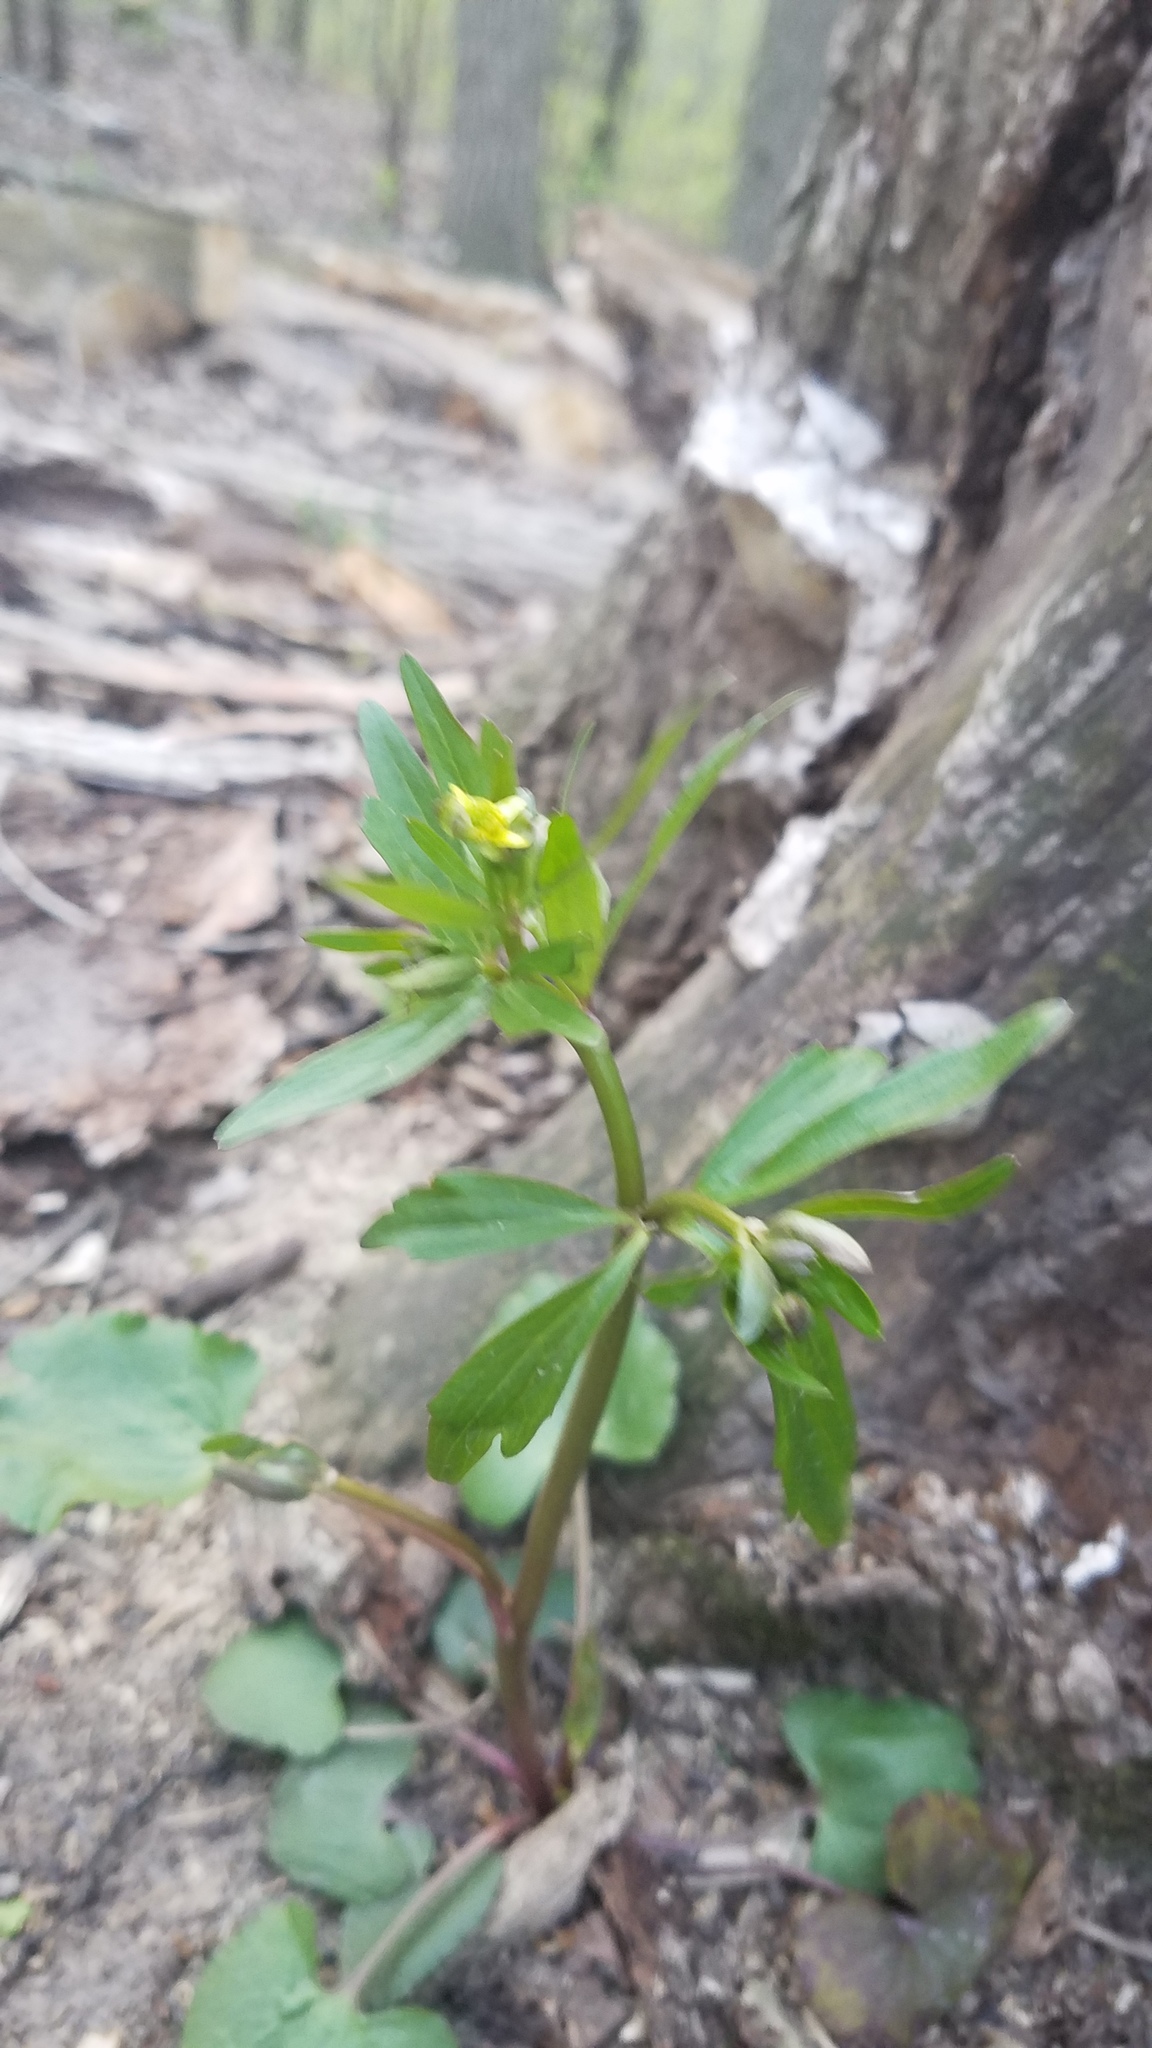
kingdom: Plantae
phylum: Tracheophyta
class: Magnoliopsida
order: Ranunculales
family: Ranunculaceae
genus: Ranunculus
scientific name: Ranunculus abortivus
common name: Early wood buttercup
